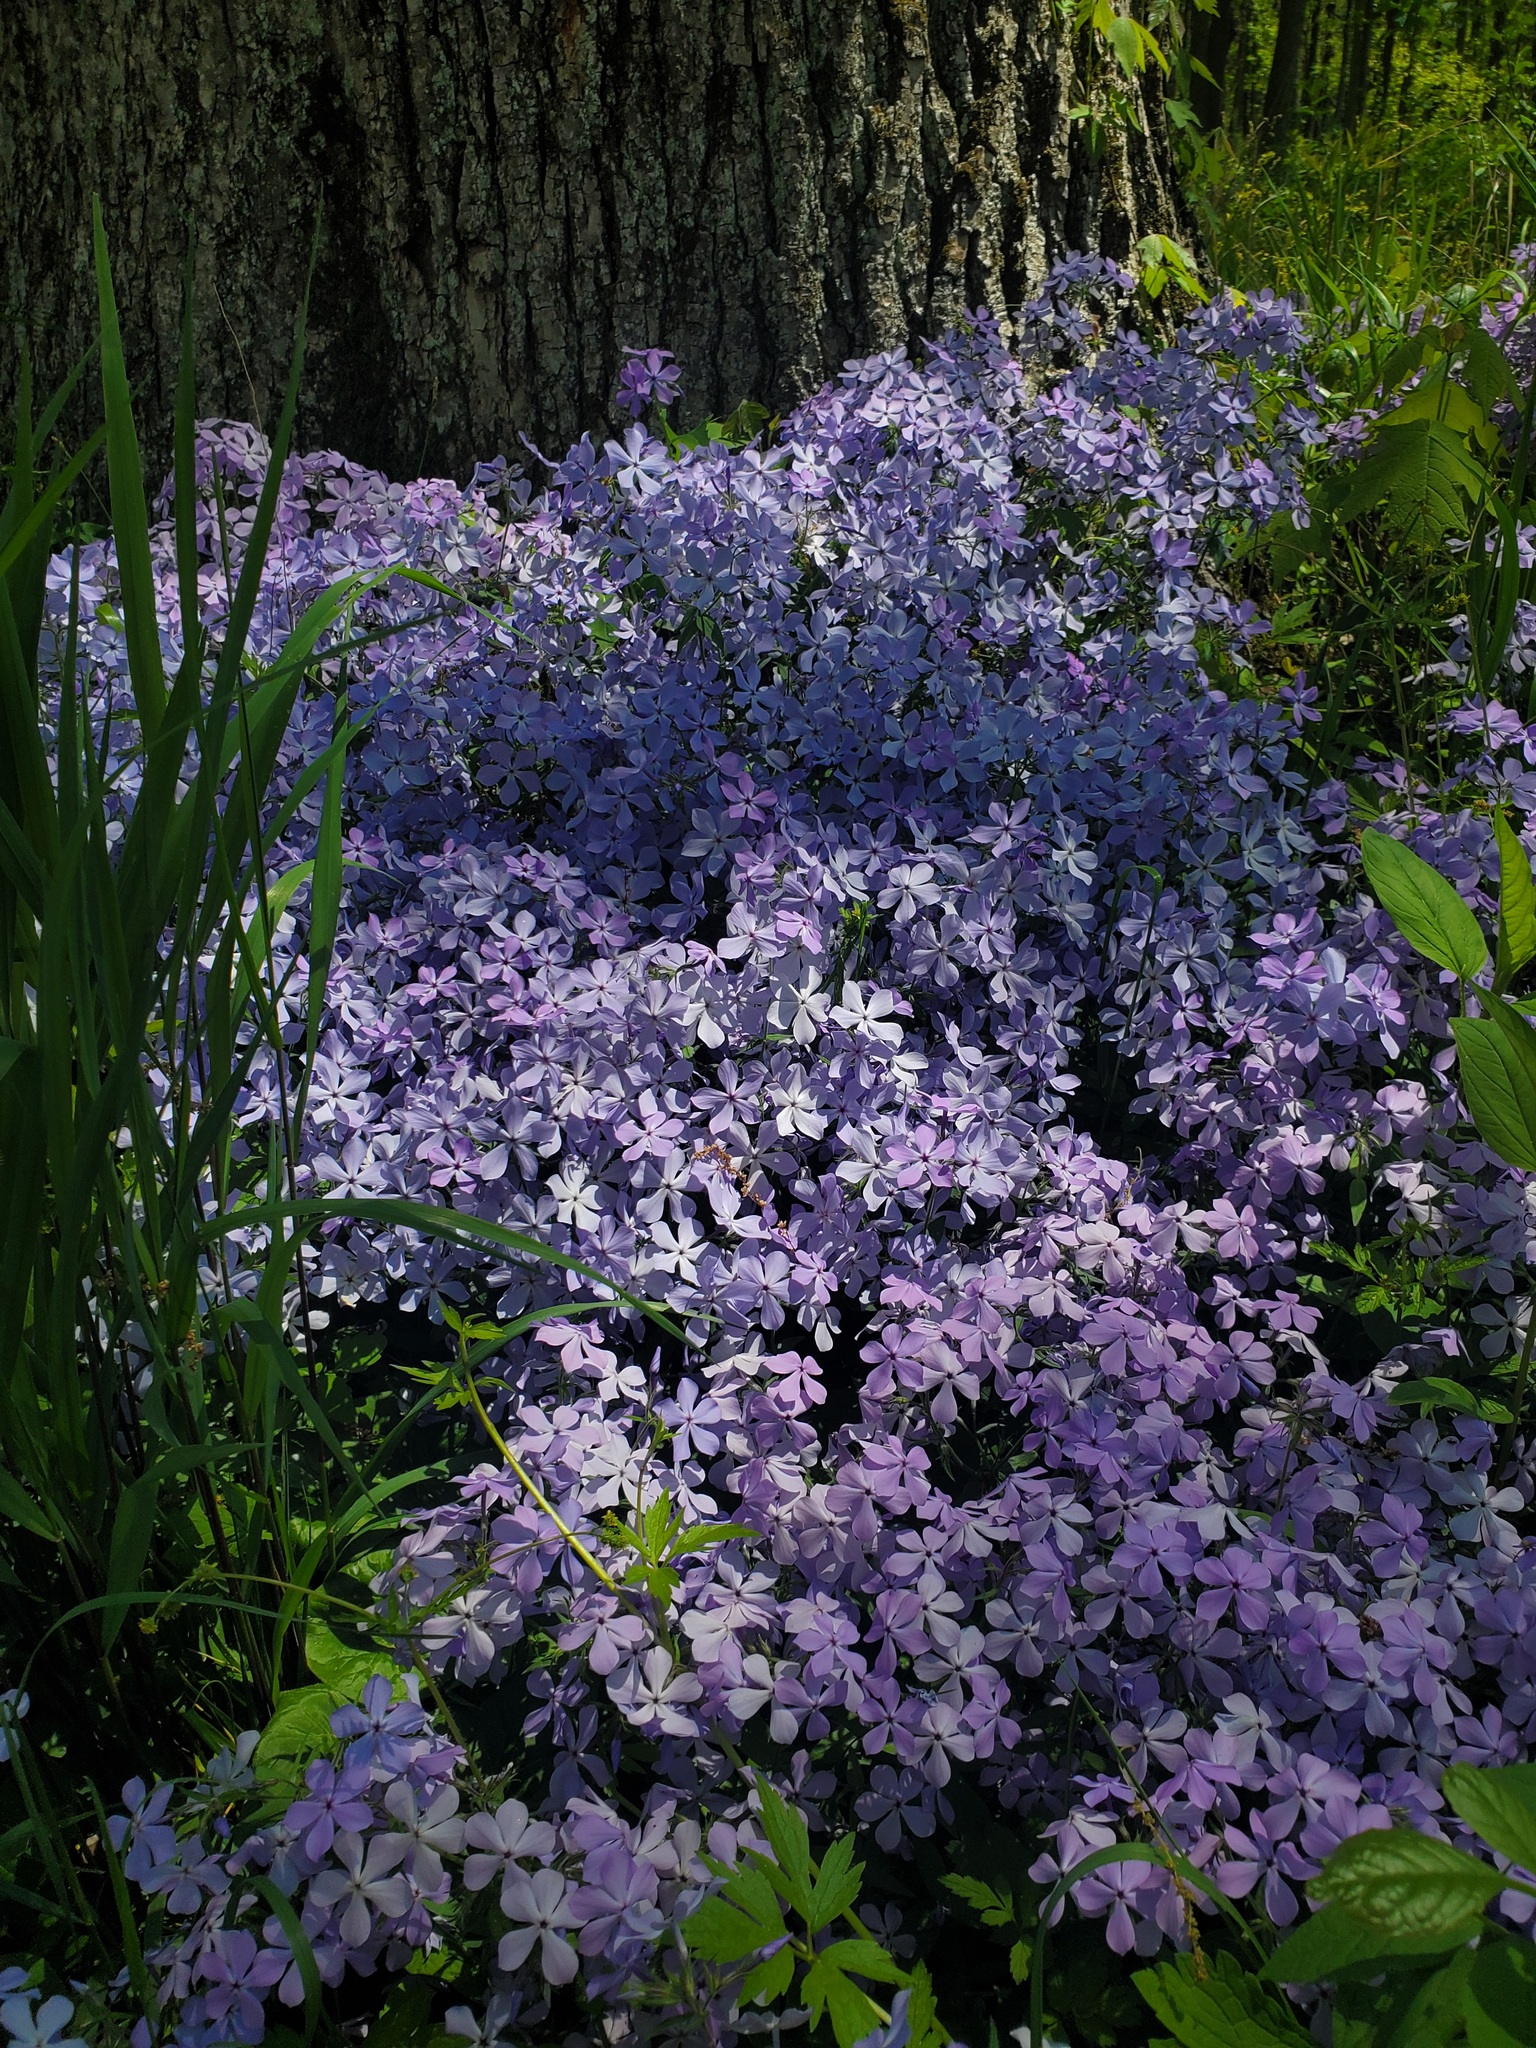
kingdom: Plantae
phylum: Tracheophyta
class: Magnoliopsida
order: Ericales
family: Polemoniaceae
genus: Phlox
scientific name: Phlox divaricata
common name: Blue phlox
